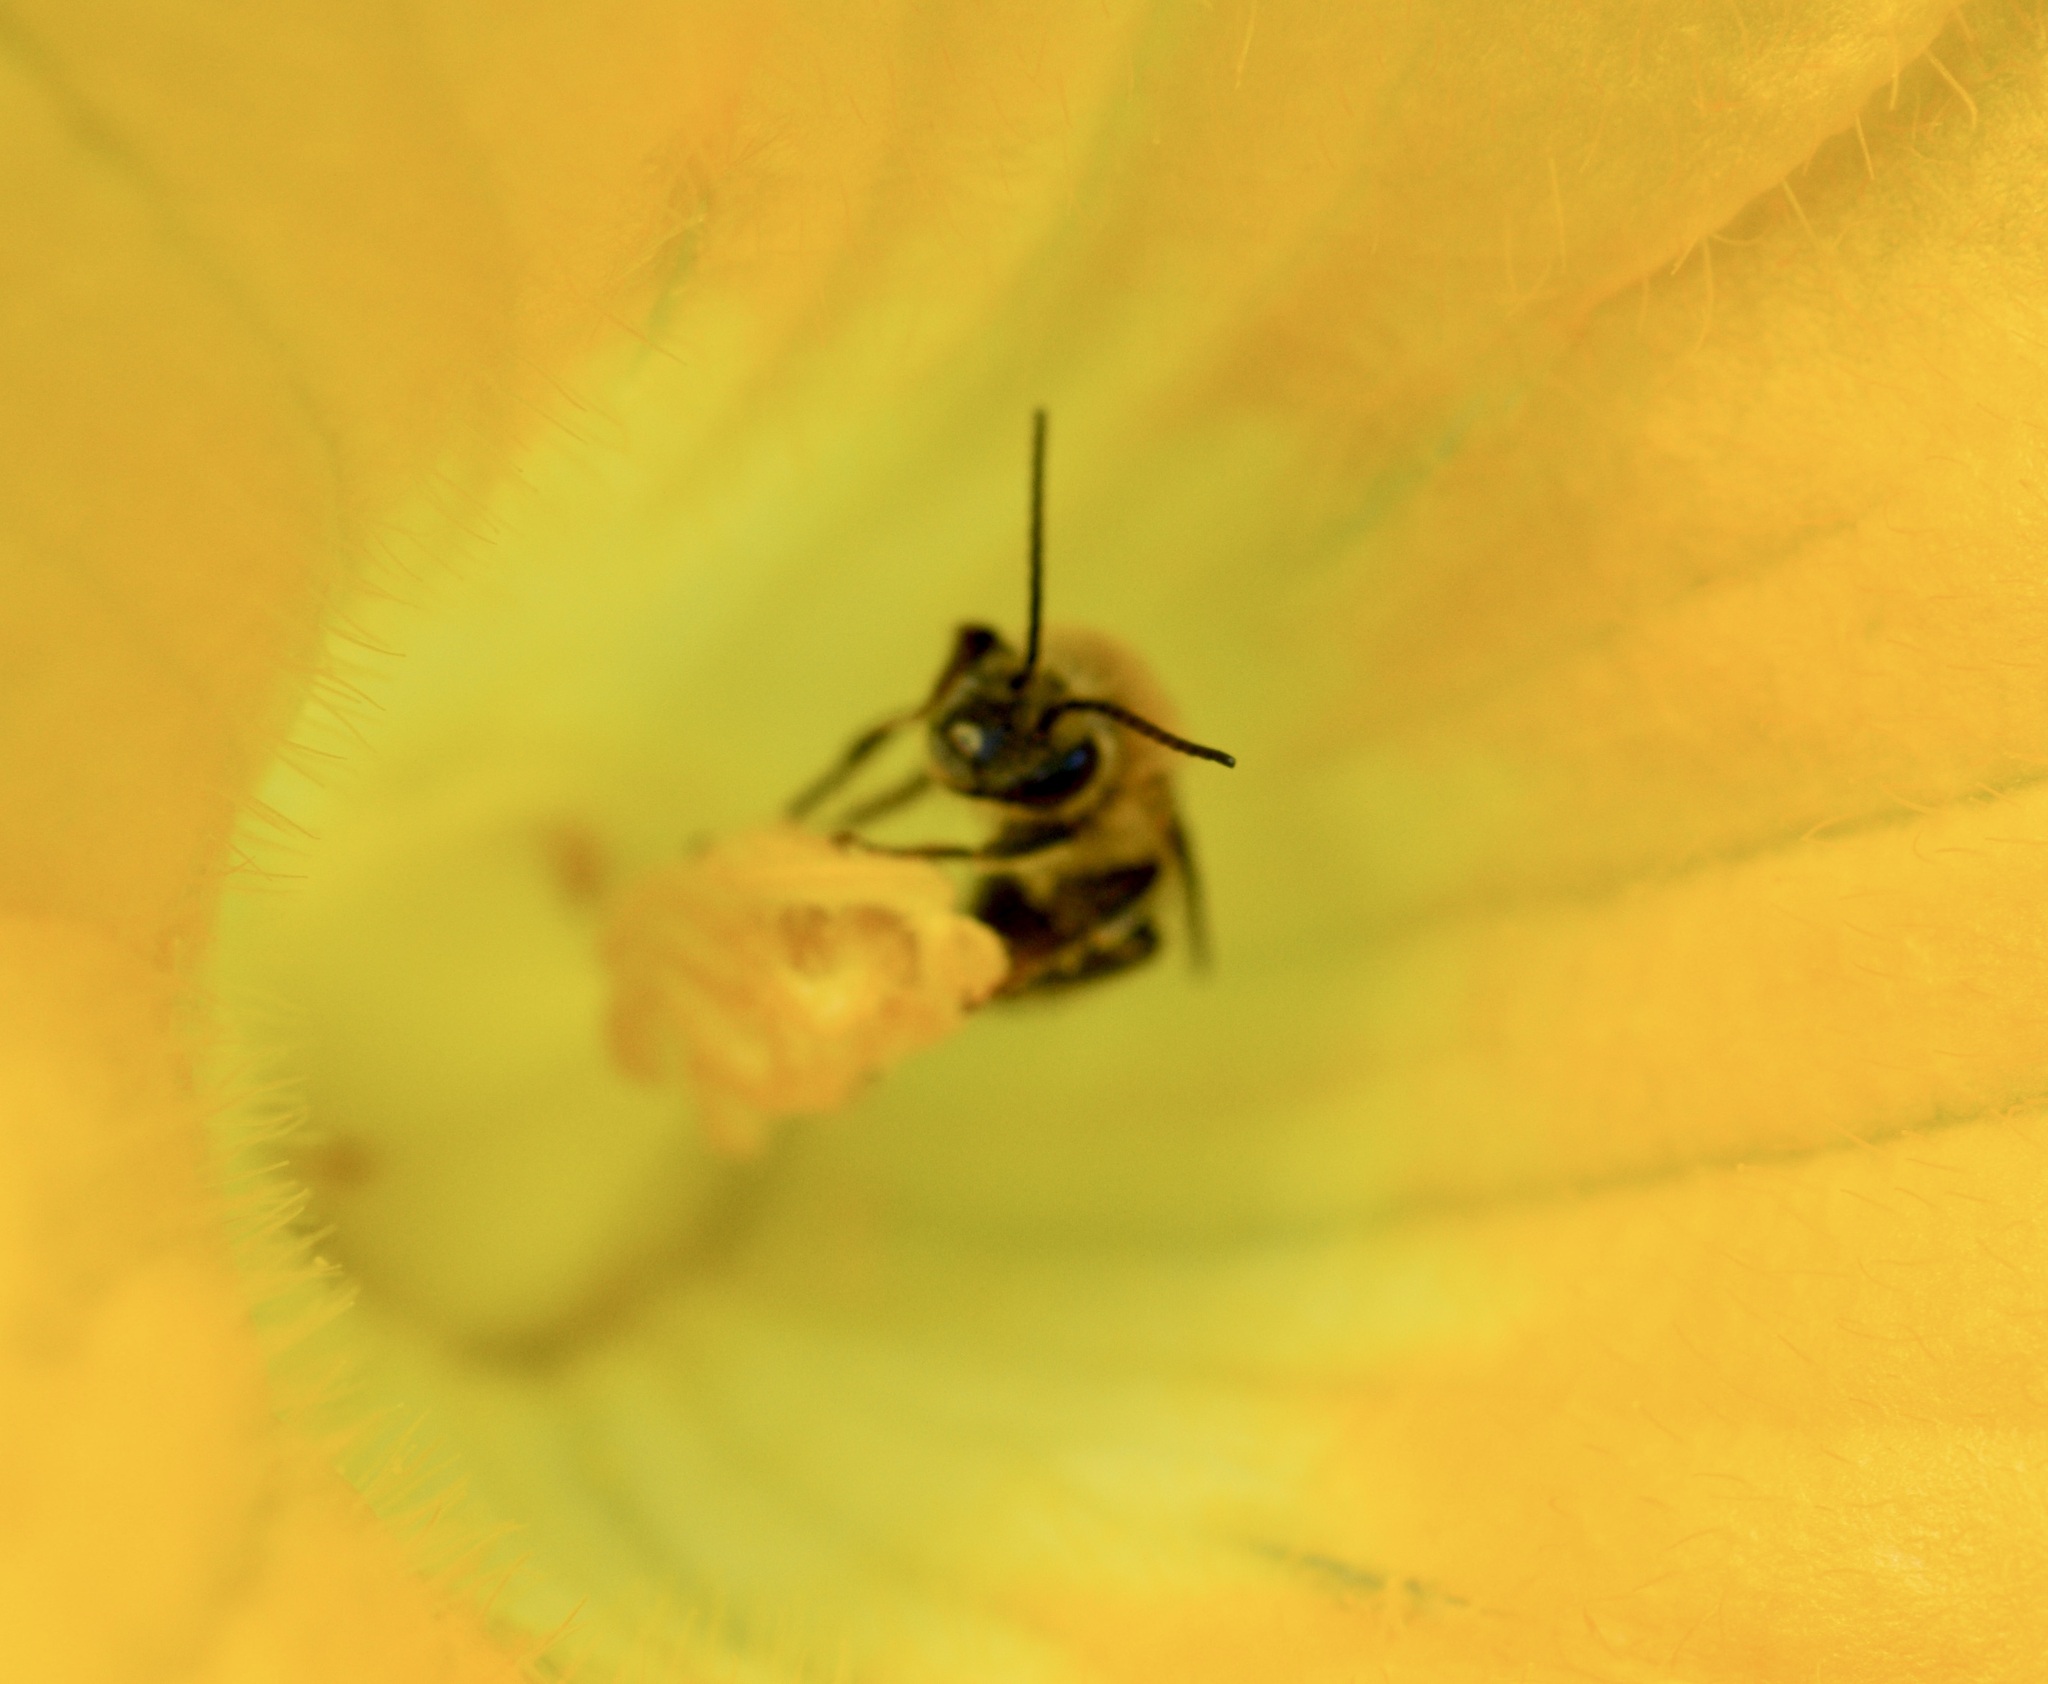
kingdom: Animalia
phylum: Arthropoda
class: Insecta
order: Hymenoptera
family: Apidae
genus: Peponapis
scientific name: Peponapis pruinosa
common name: Pruinose squash bee
